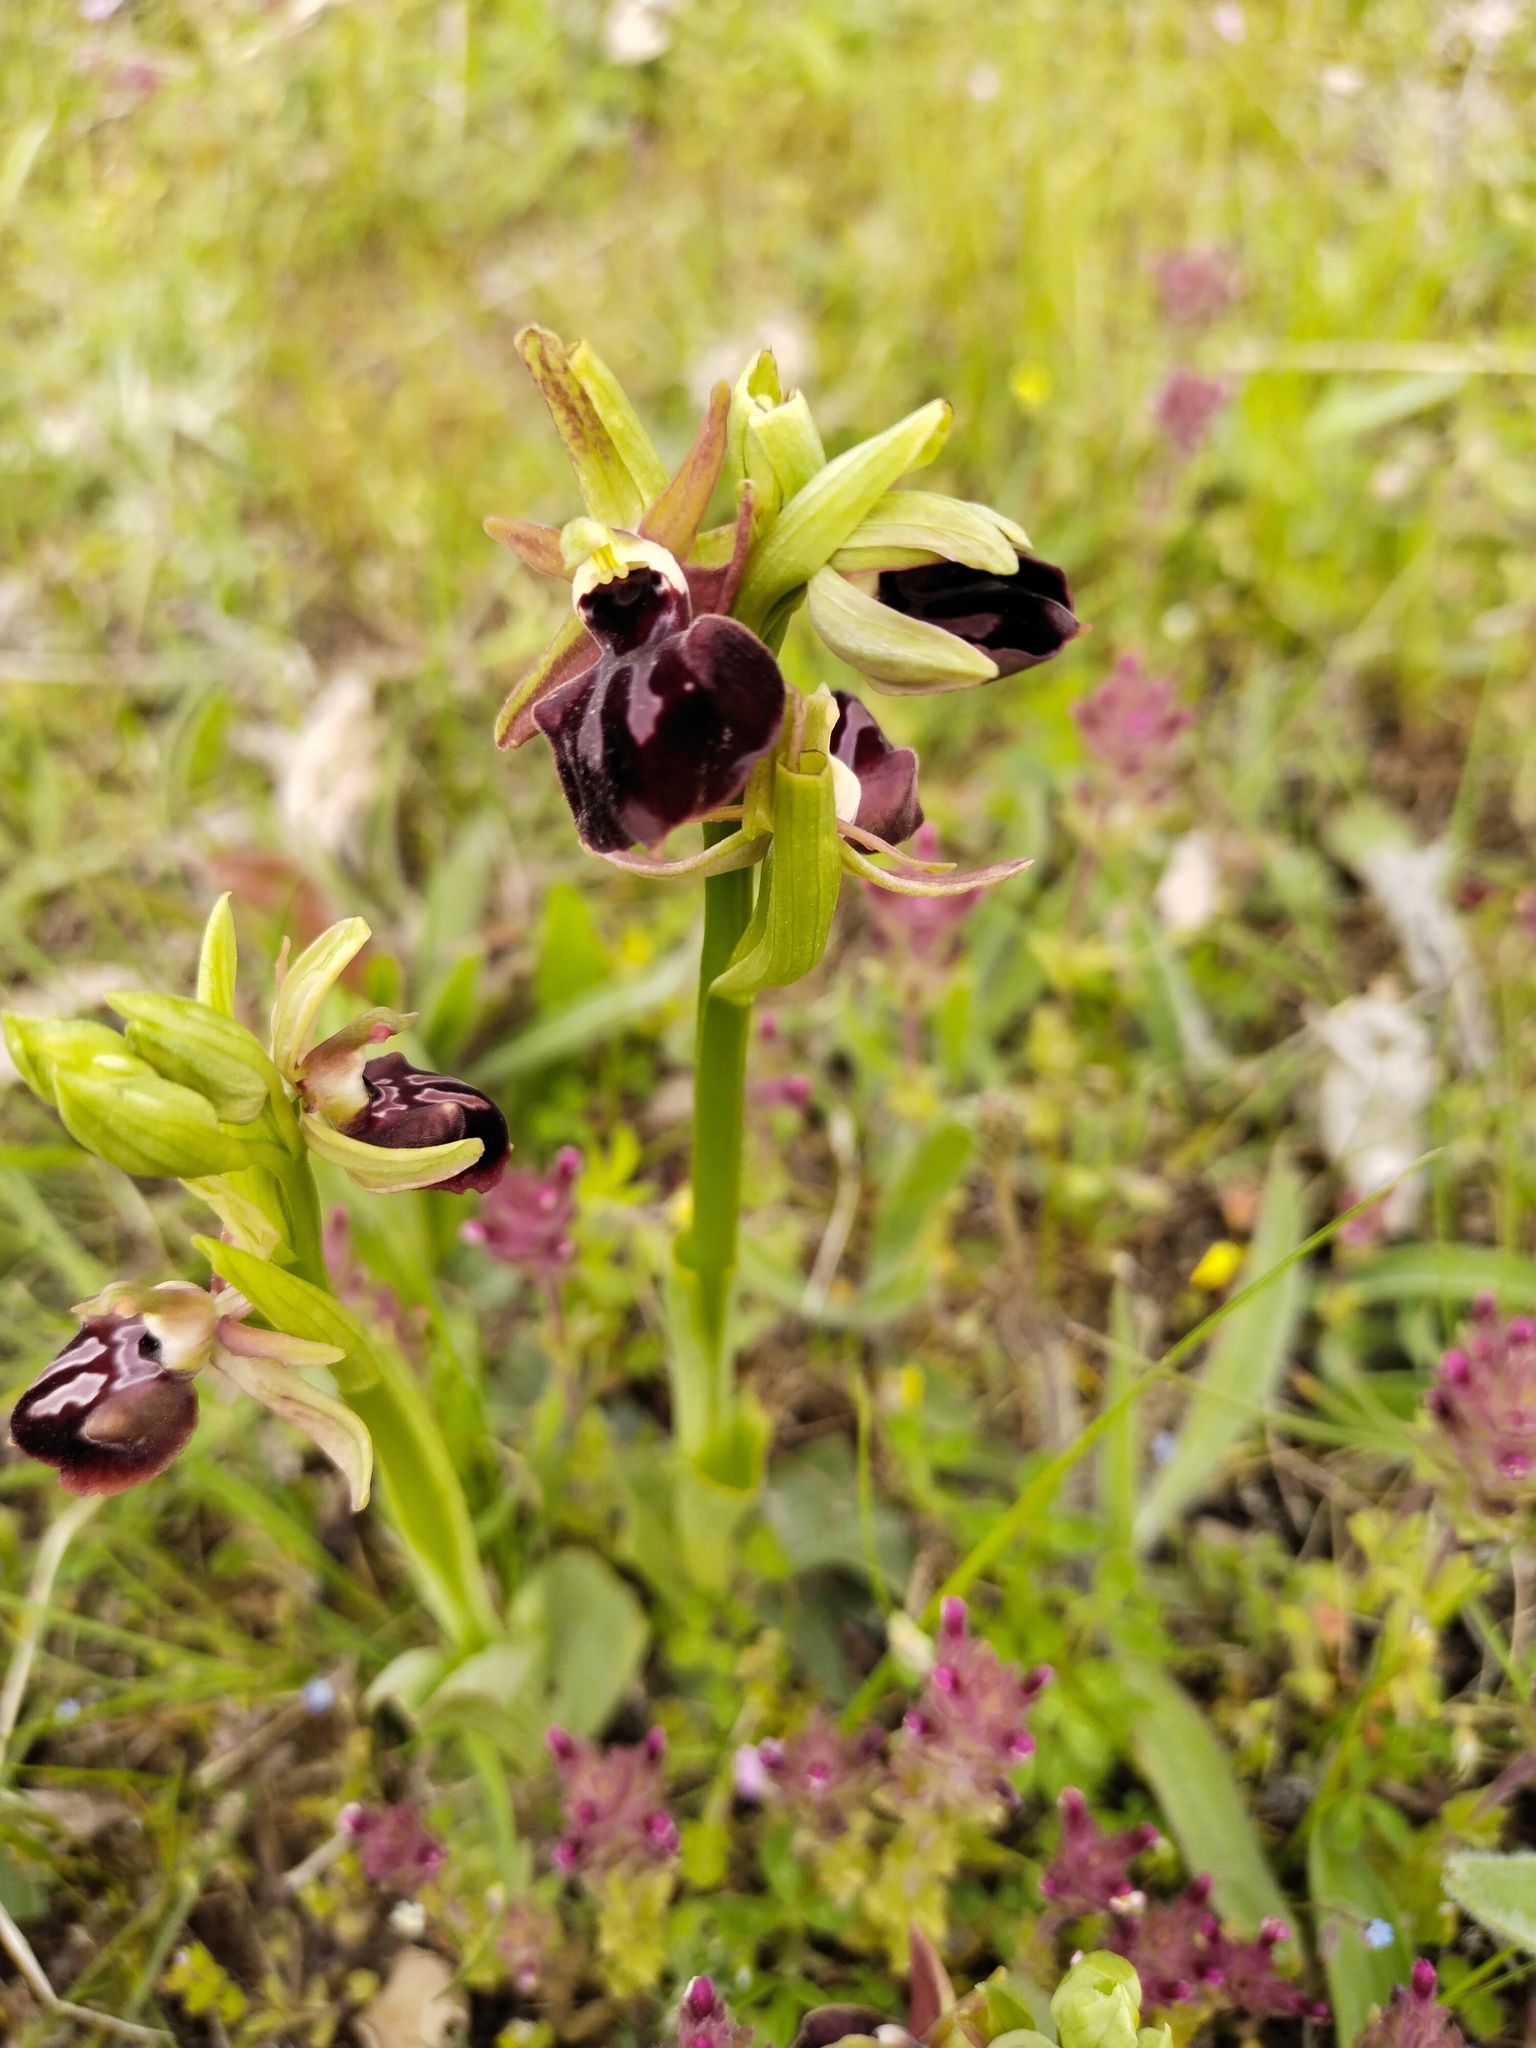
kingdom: Plantae
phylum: Tracheophyta
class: Liliopsida
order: Asparagales
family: Orchidaceae
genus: Ophrys
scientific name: Ophrys sphegodes
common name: Early spider-orchid
